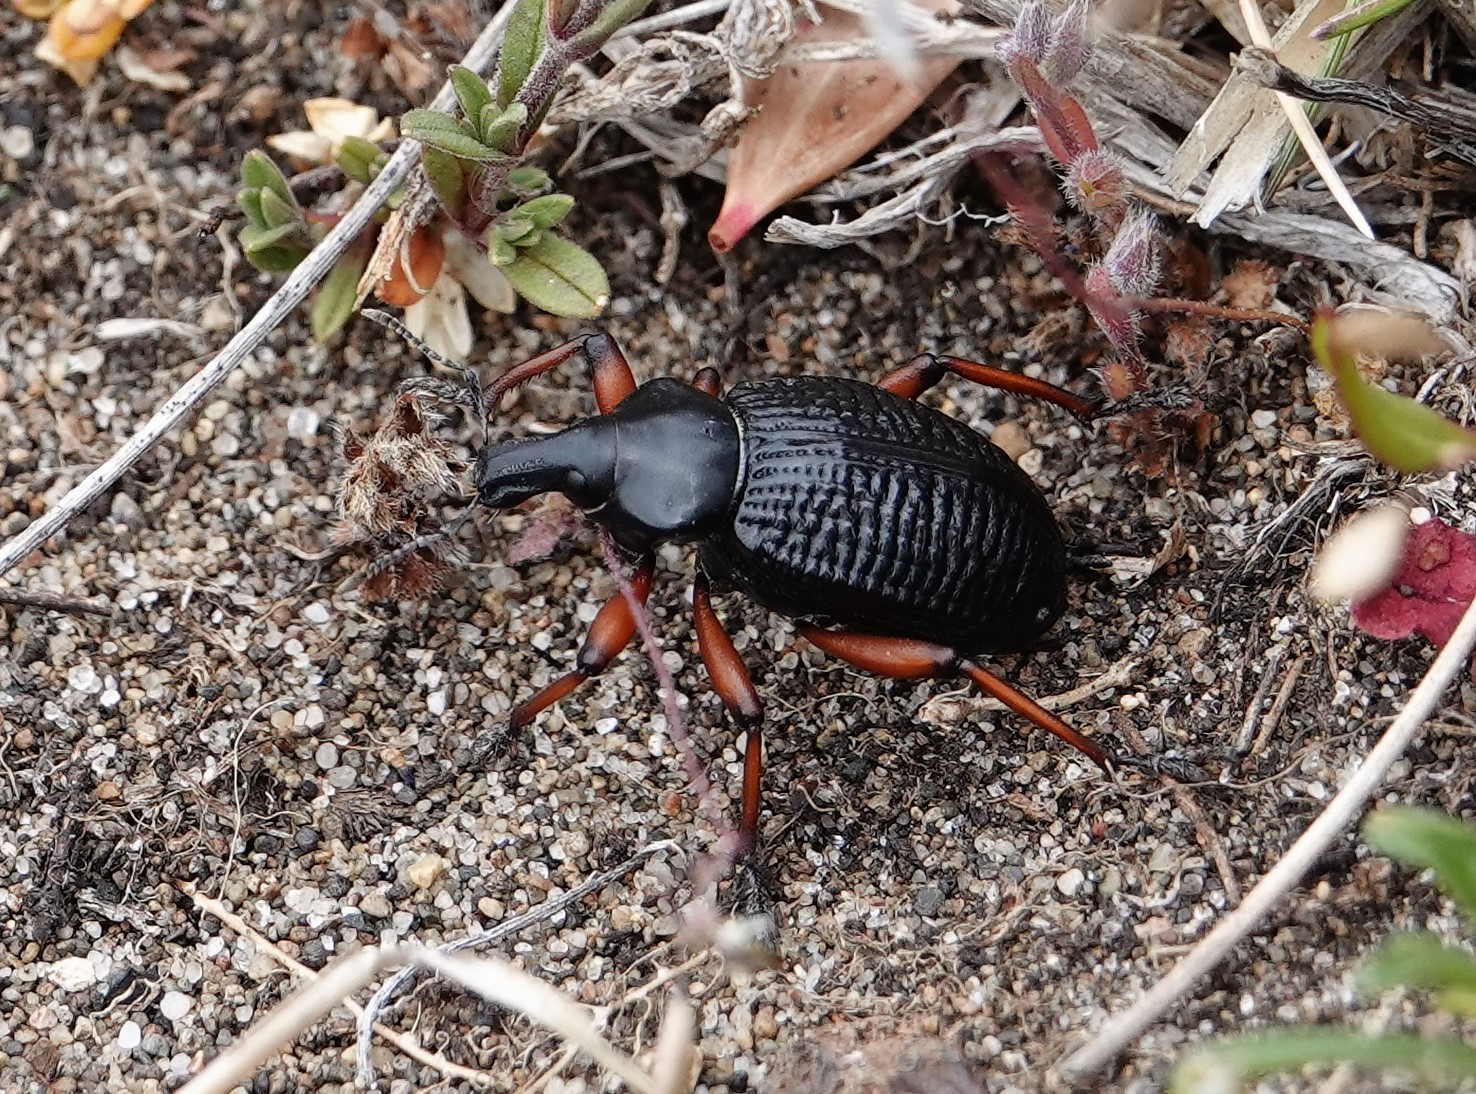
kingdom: Animalia
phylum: Arthropoda
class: Insecta
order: Coleoptera
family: Curculionidae
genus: Cylydrorhinus
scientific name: Cylydrorhinus angulatus
